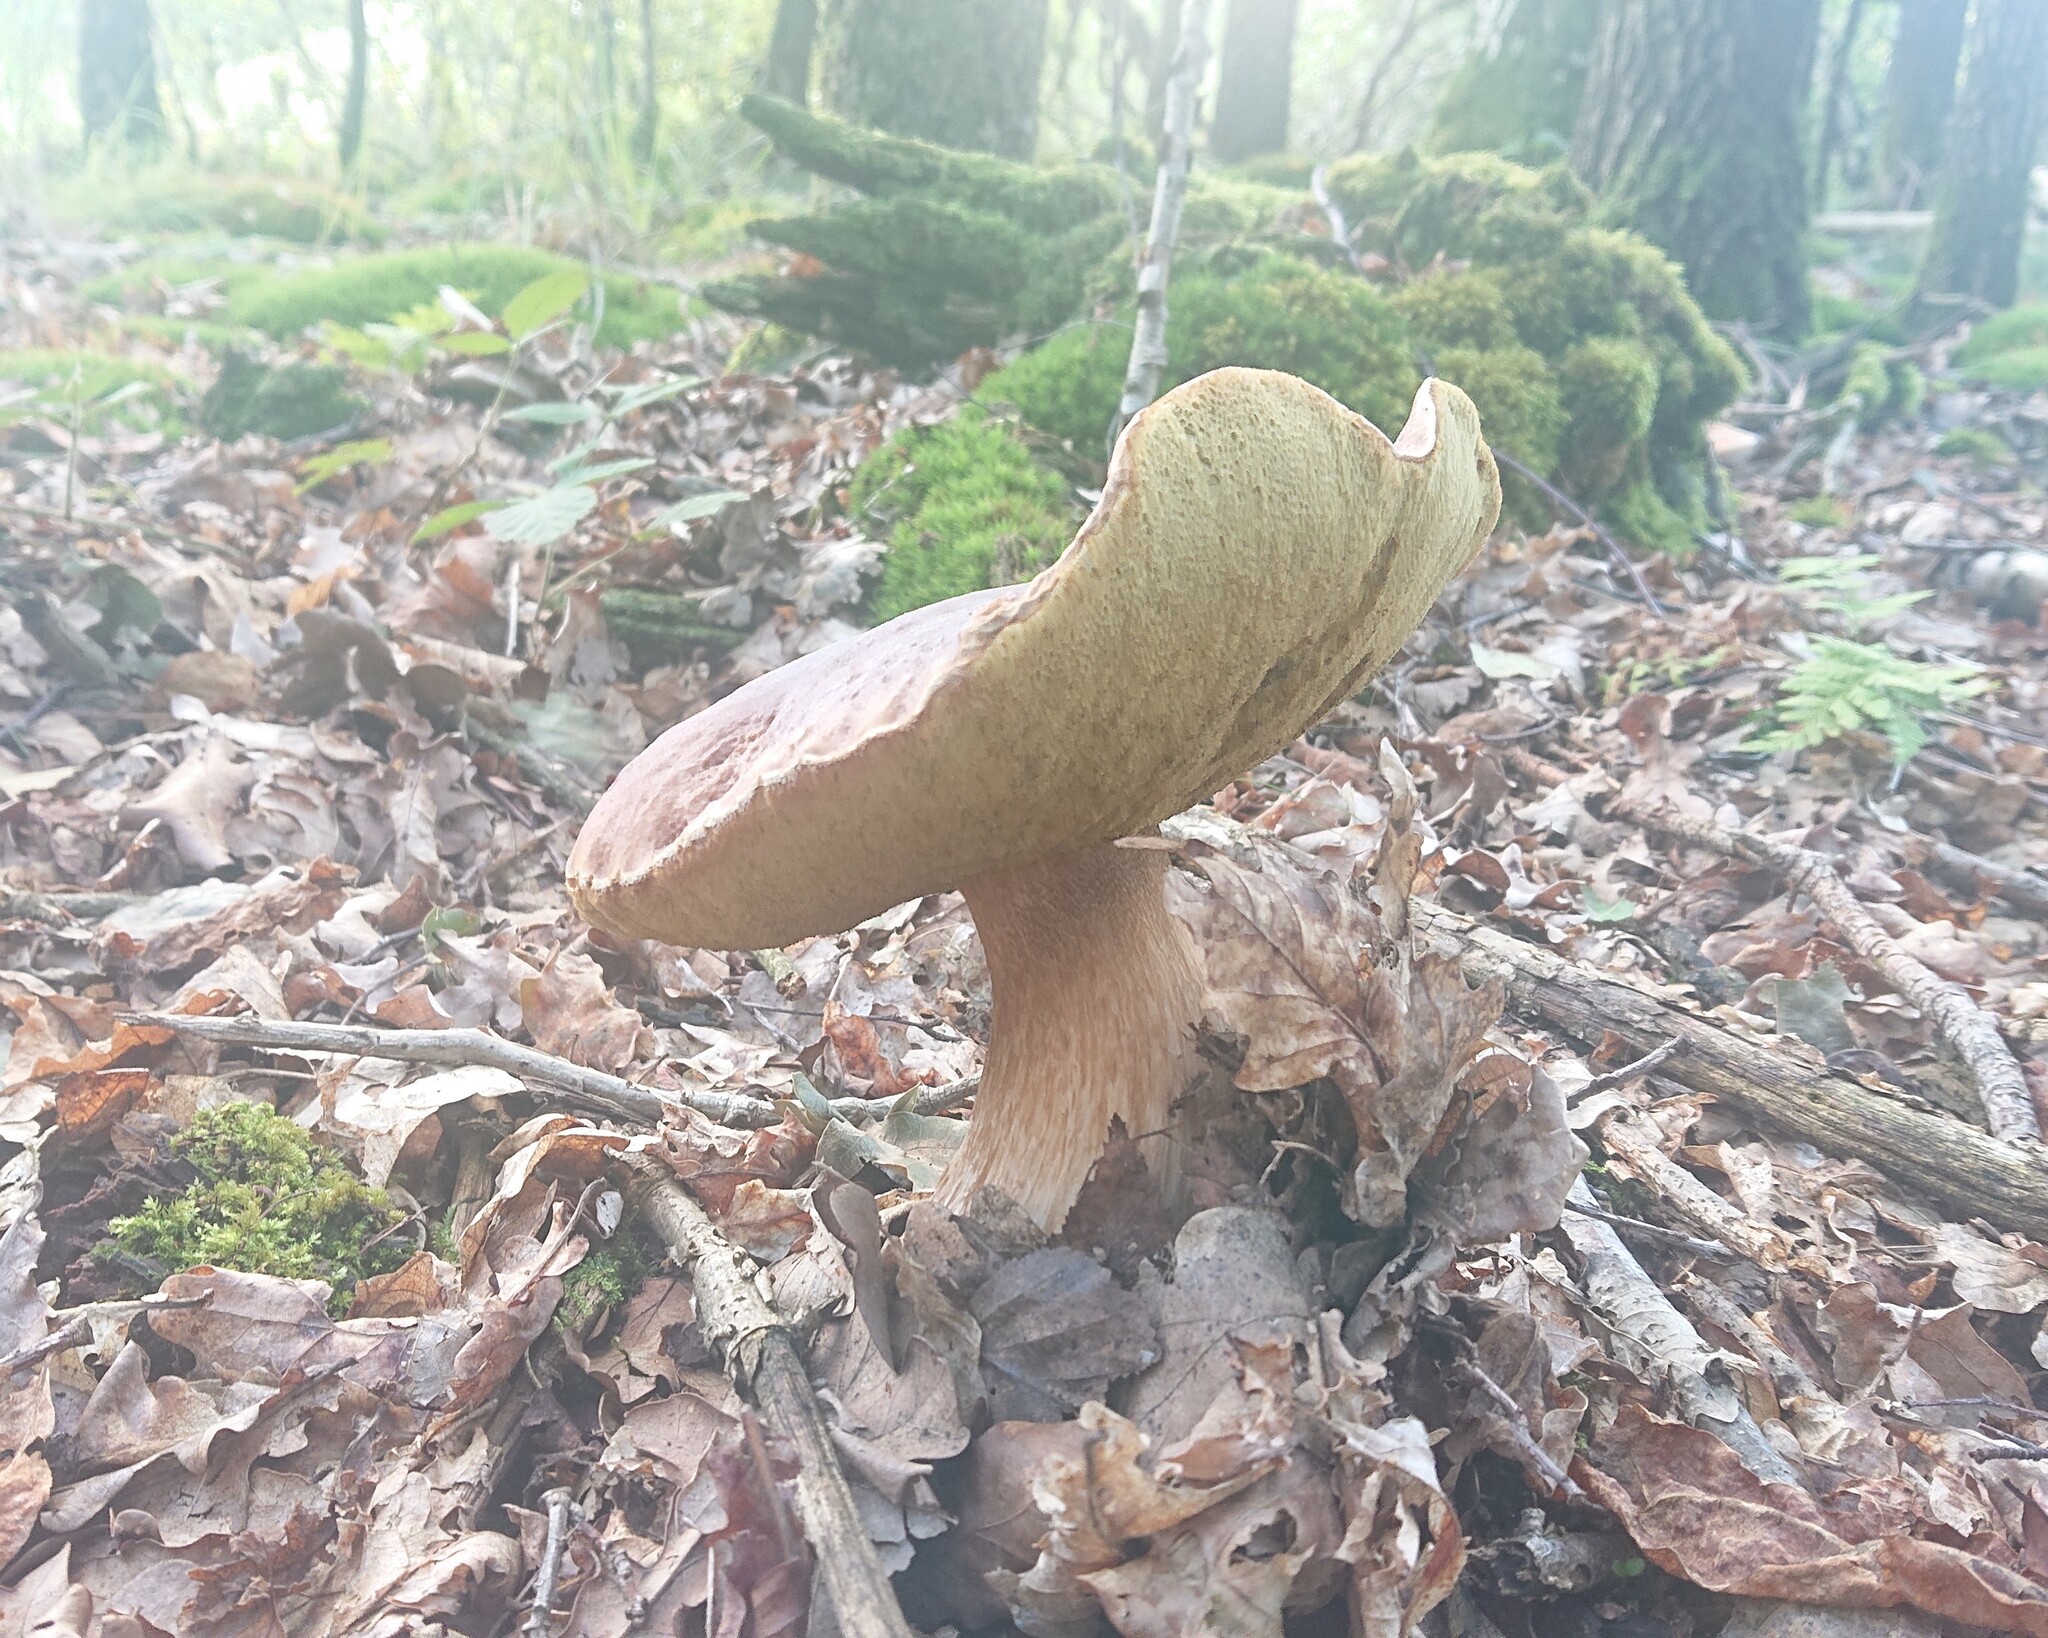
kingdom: Fungi
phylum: Basidiomycota
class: Agaricomycetes
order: Boletales
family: Boletaceae
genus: Boletus
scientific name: Boletus edulis
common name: Cep
